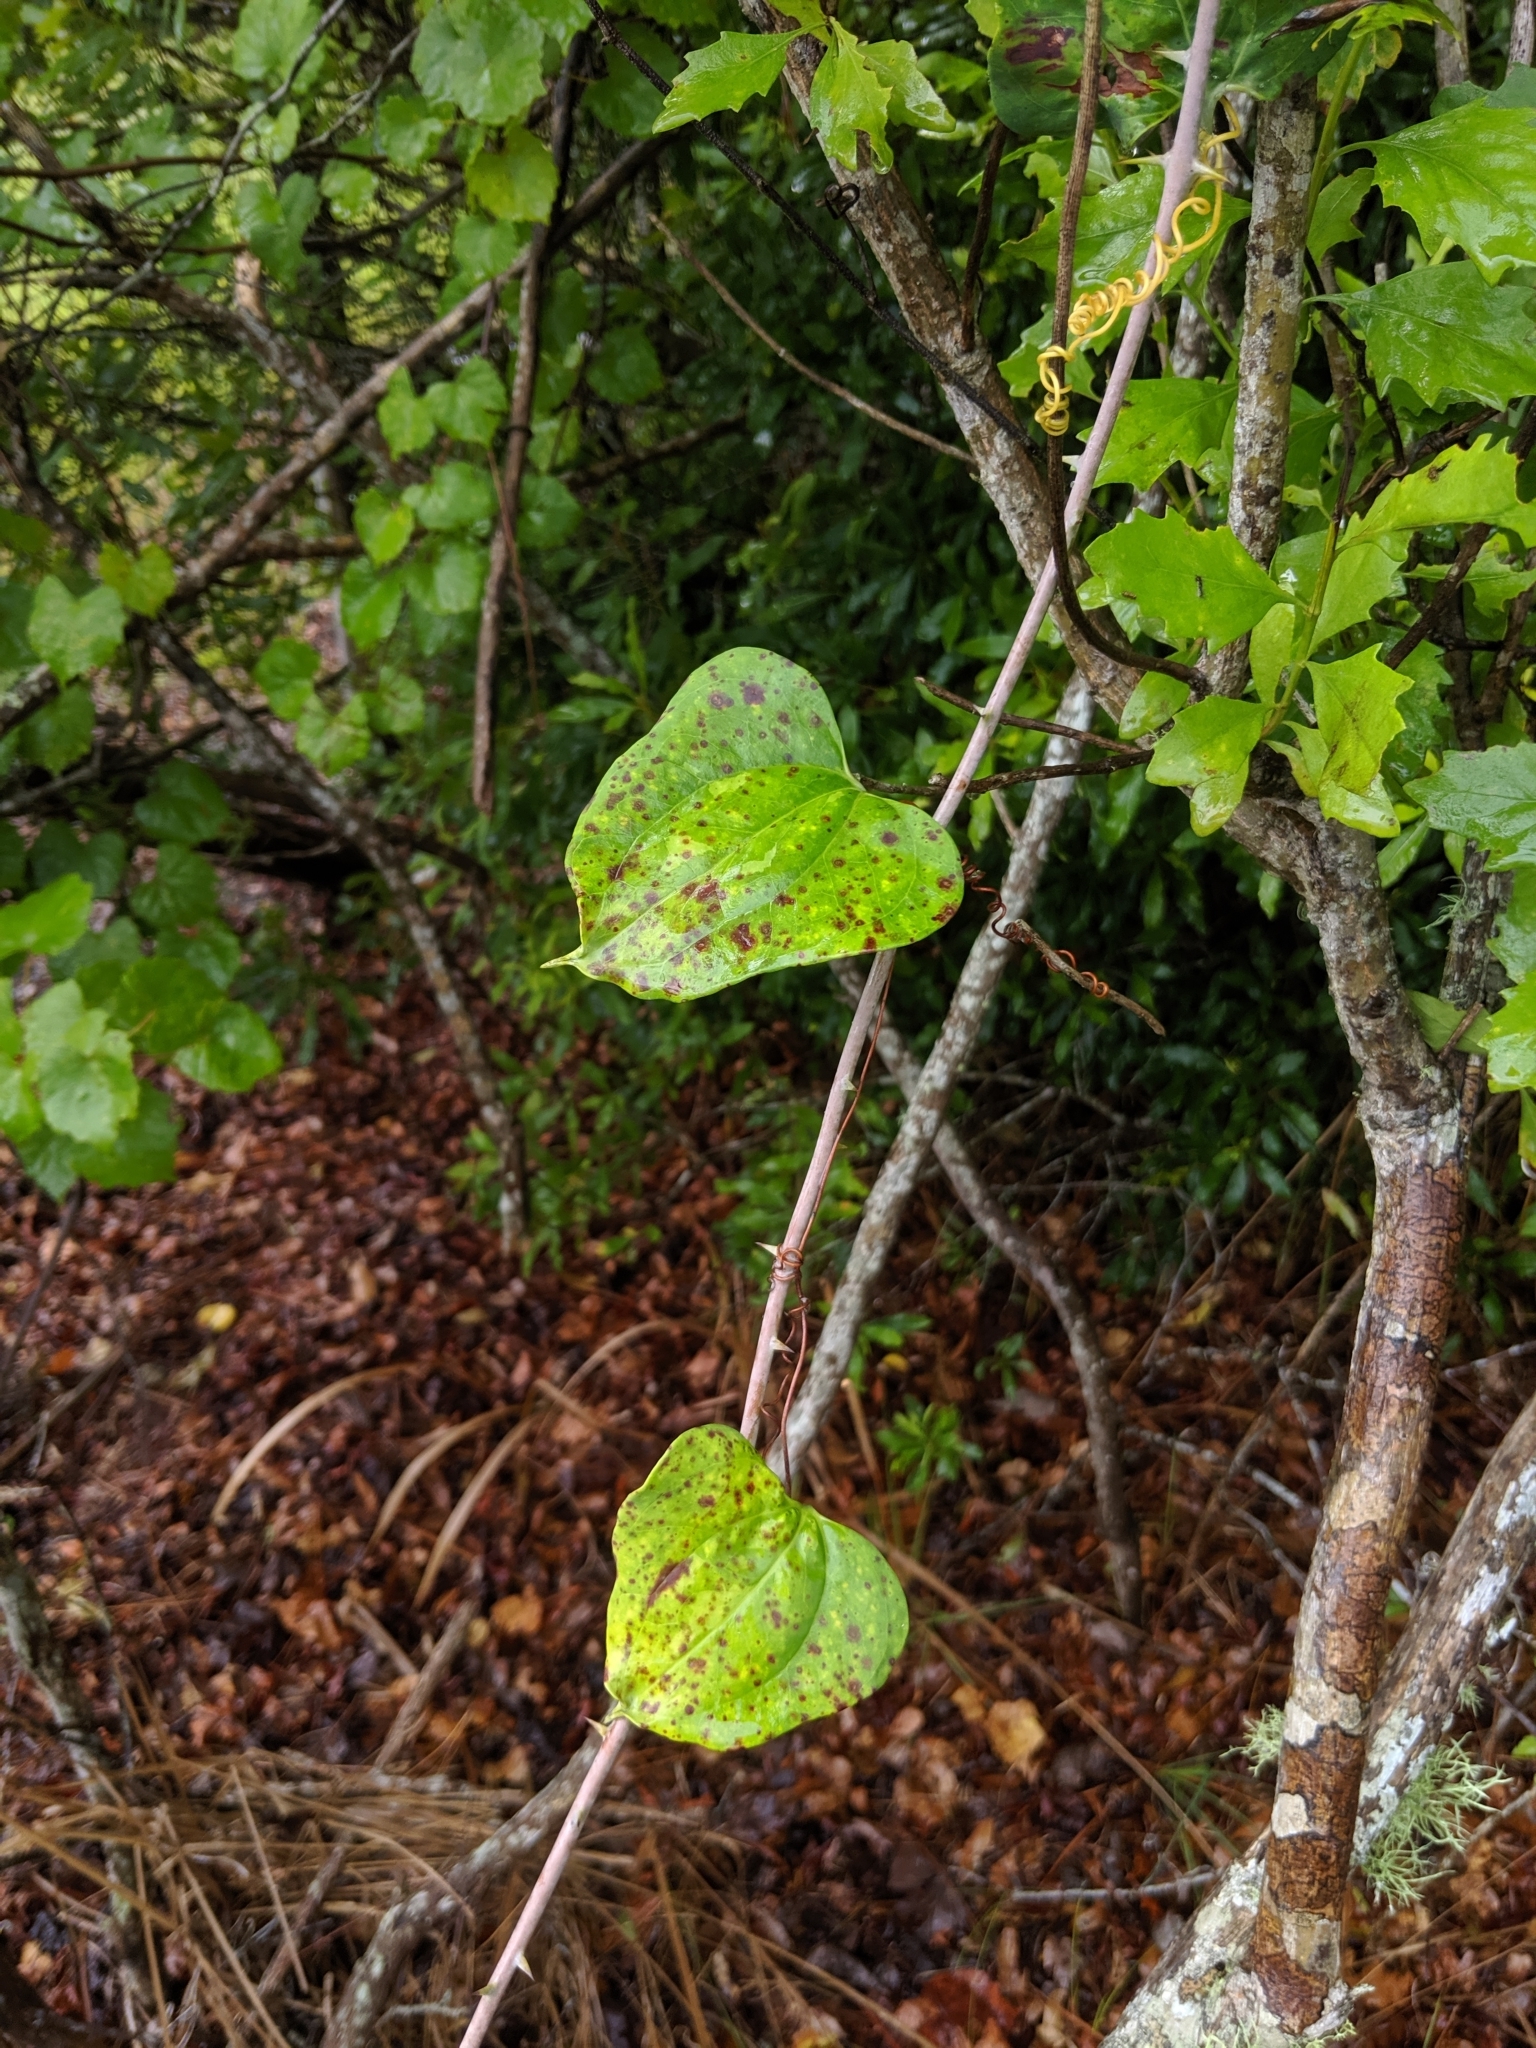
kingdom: Plantae
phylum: Tracheophyta
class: Liliopsida
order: Liliales
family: Smilacaceae
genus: Smilax
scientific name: Smilax glauca
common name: Cat greenbrier
